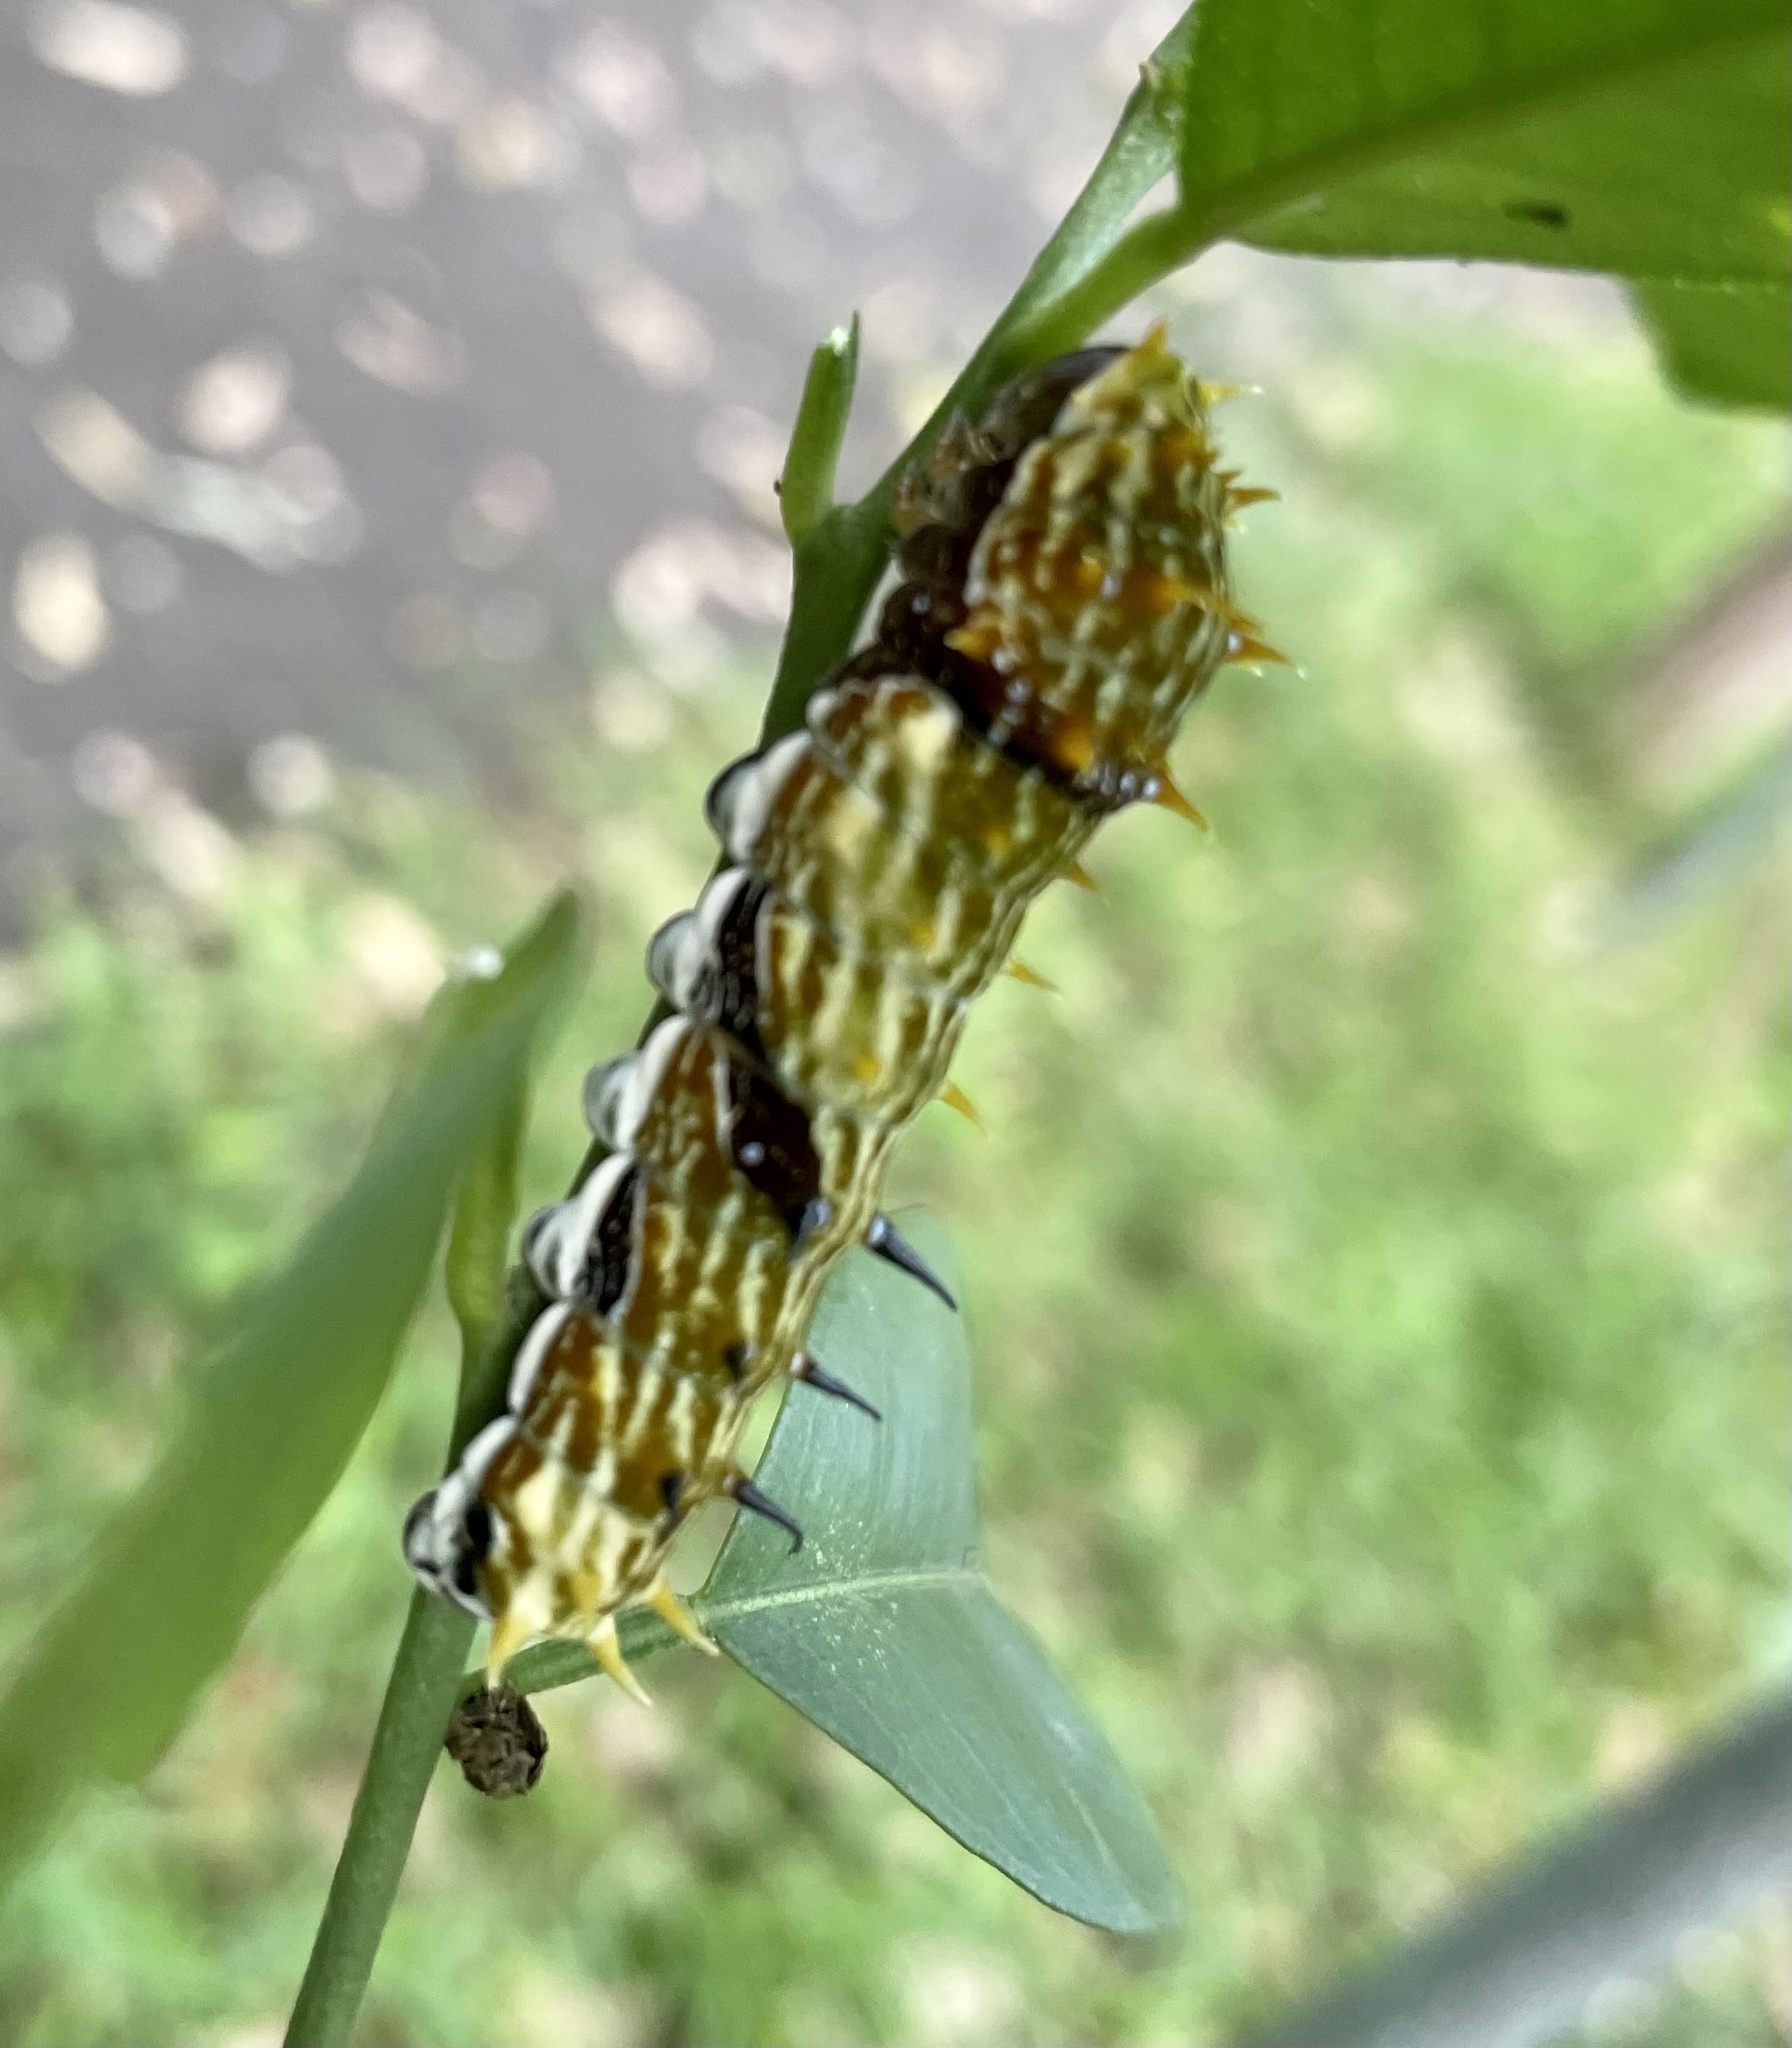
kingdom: Animalia
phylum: Arthropoda
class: Insecta
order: Lepidoptera
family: Papilionidae
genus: Papilio
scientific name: Papilio aegeus
